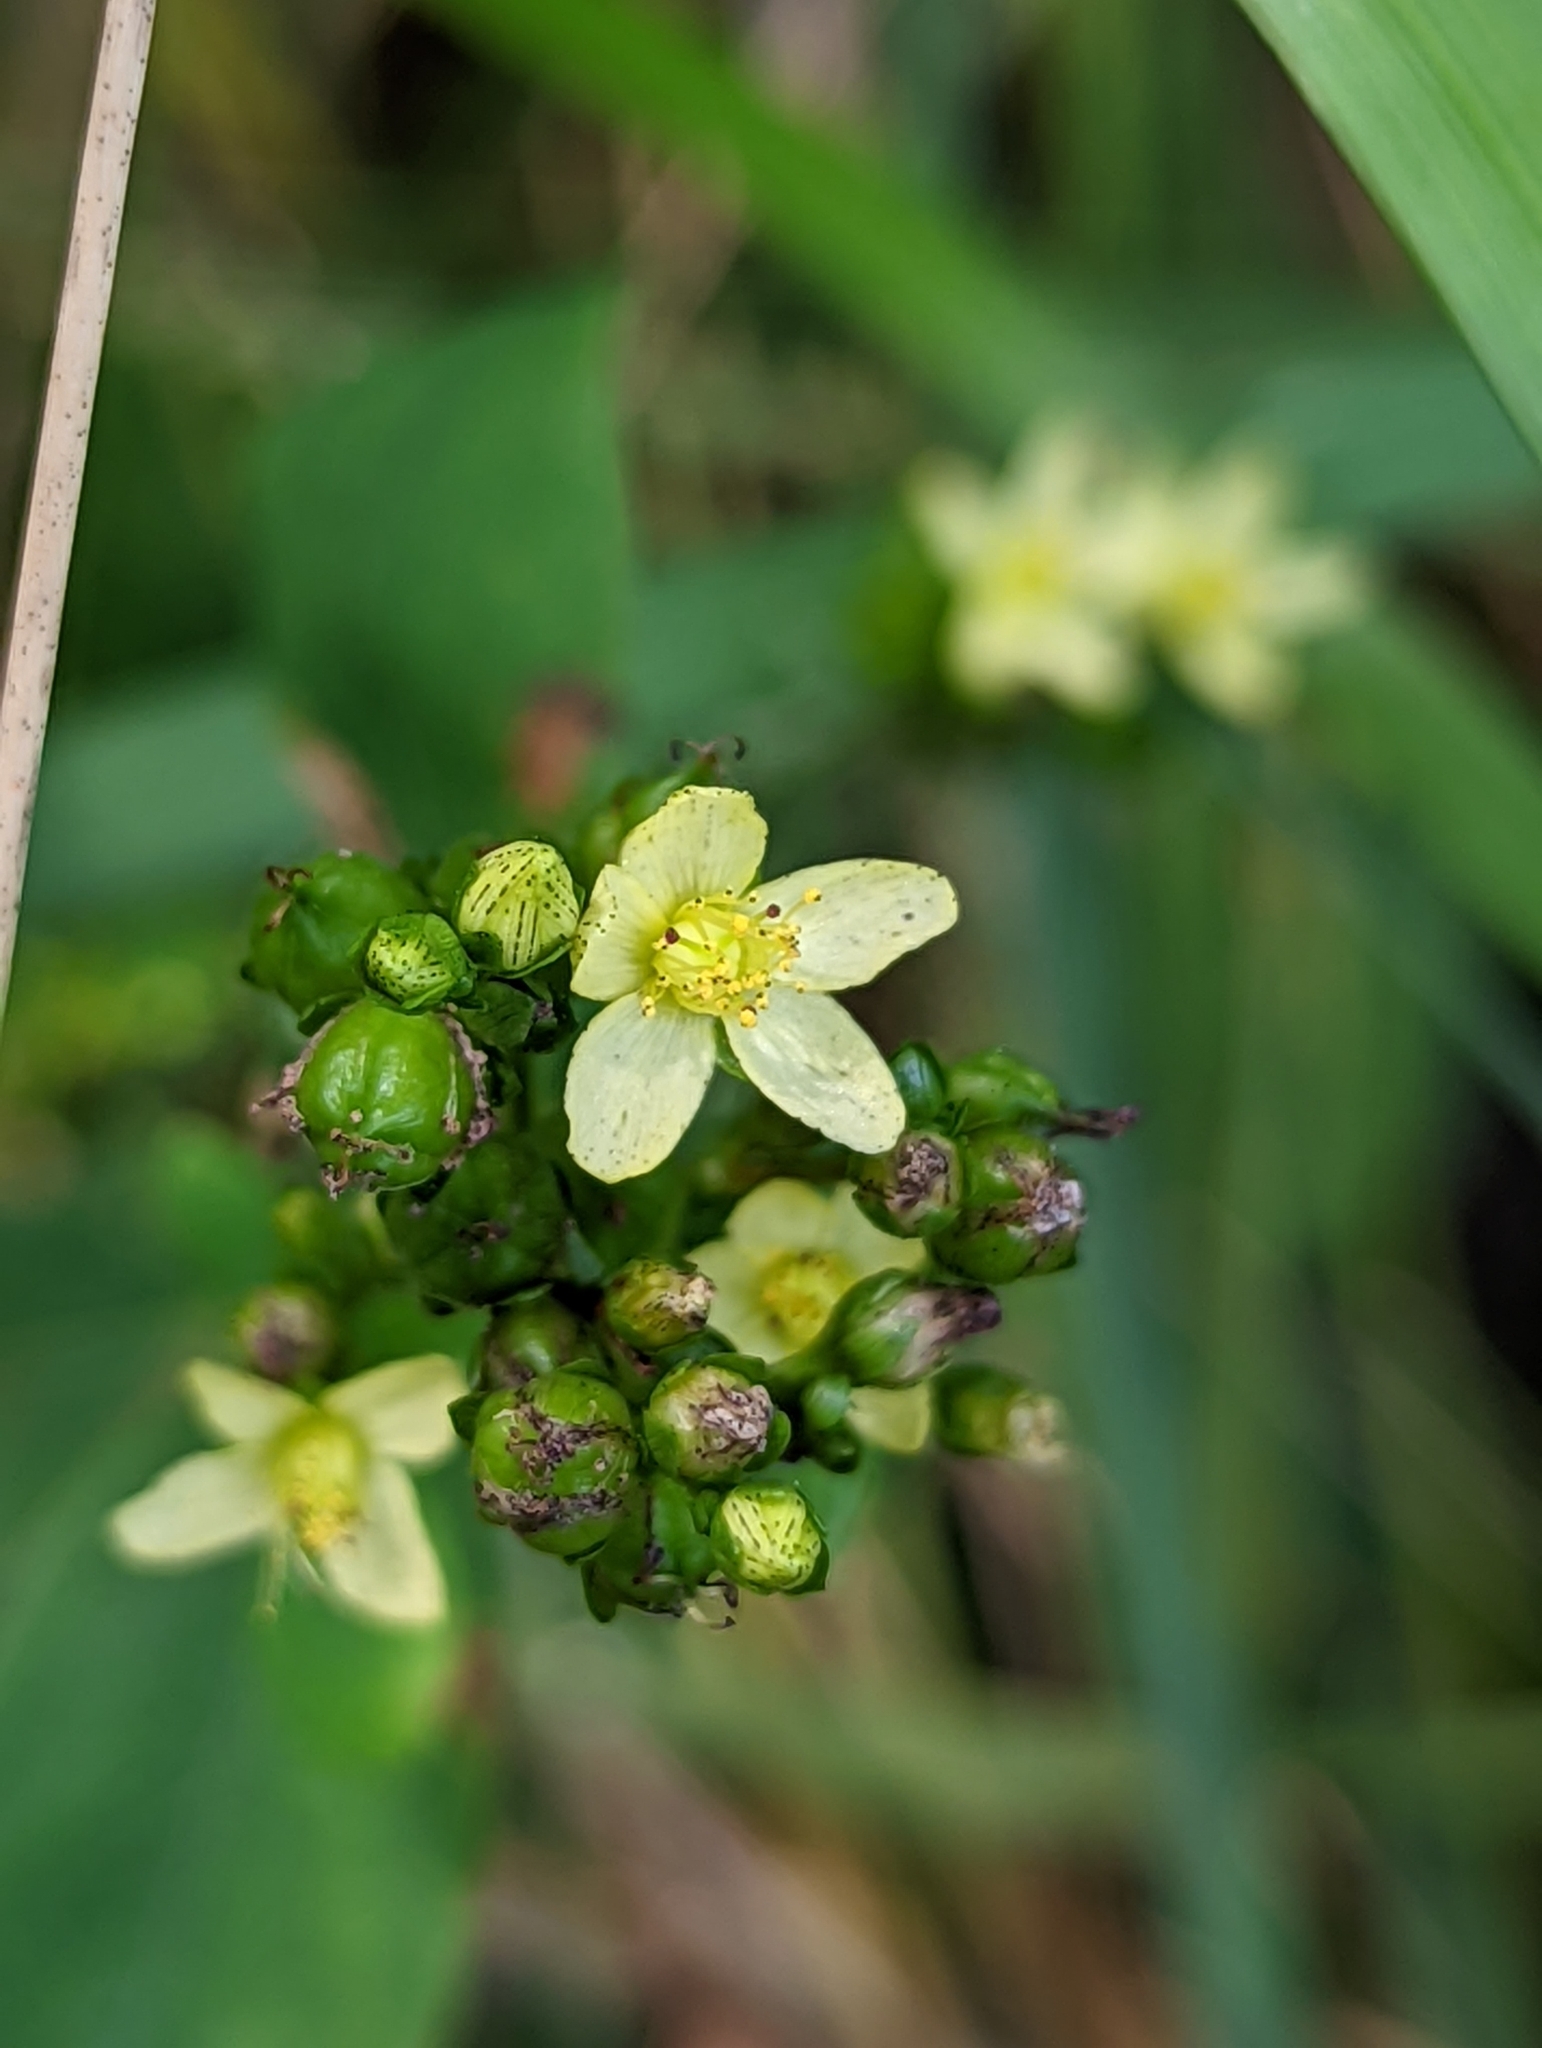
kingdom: Plantae
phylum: Tracheophyta
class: Magnoliopsida
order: Malpighiales
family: Hypericaceae
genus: Hypericum
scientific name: Hypericum punctatum
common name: Spotted st. john's-wort
